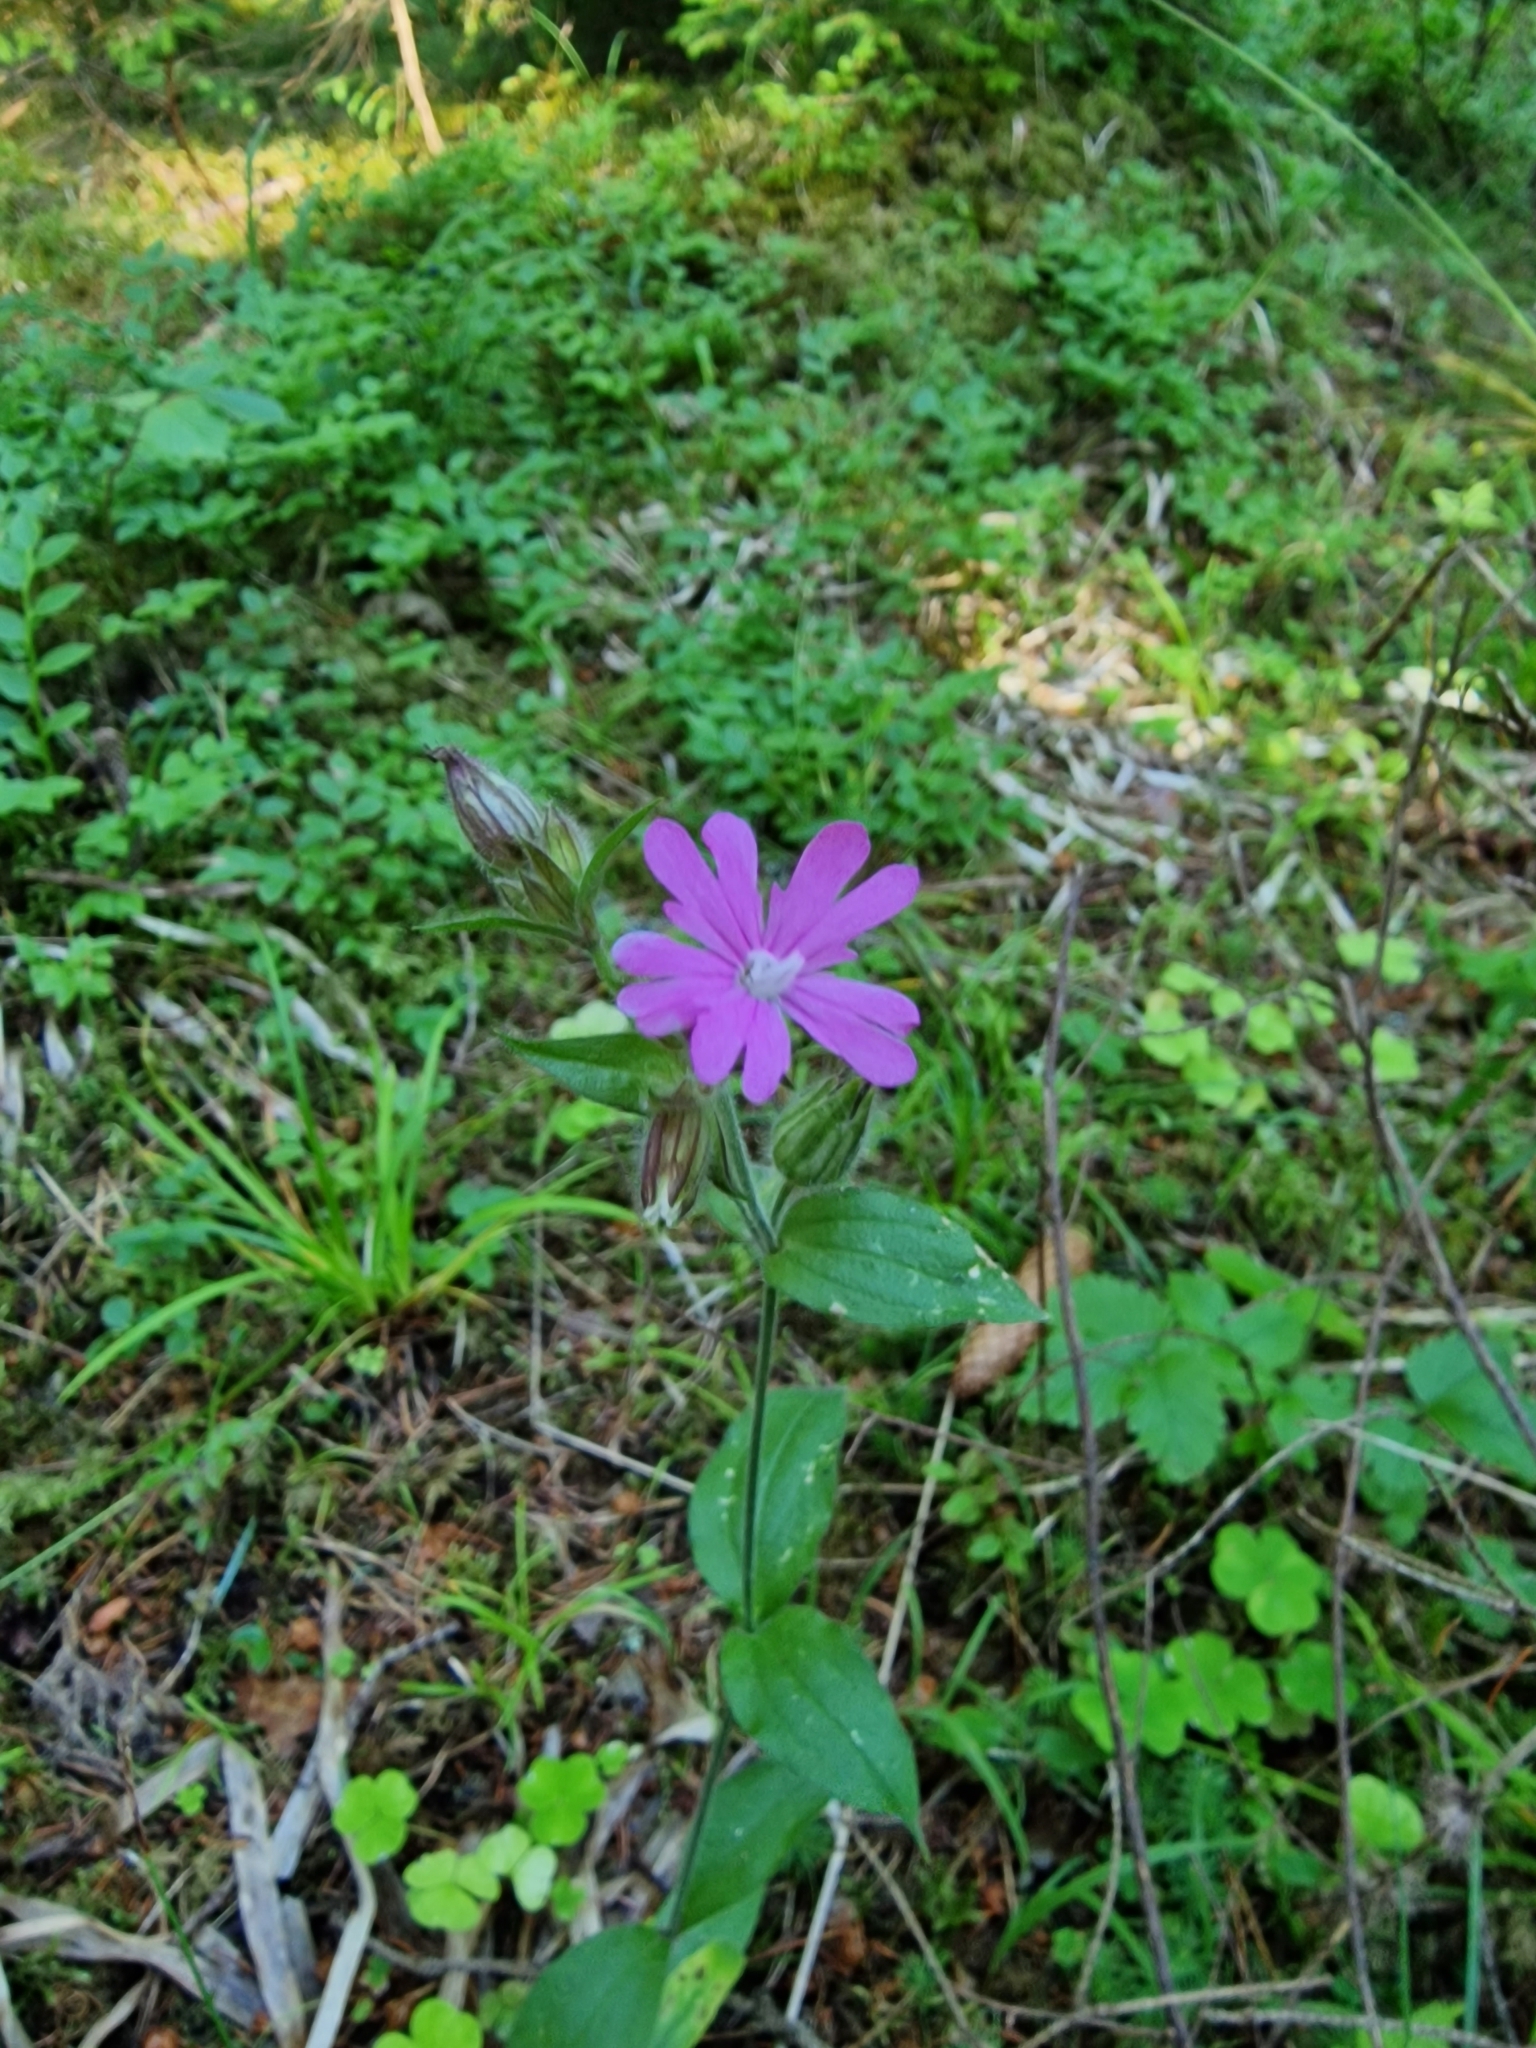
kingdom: Plantae
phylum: Tracheophyta
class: Magnoliopsida
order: Caryophyllales
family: Caryophyllaceae
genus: Silene
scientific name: Silene dioica
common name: Red campion
